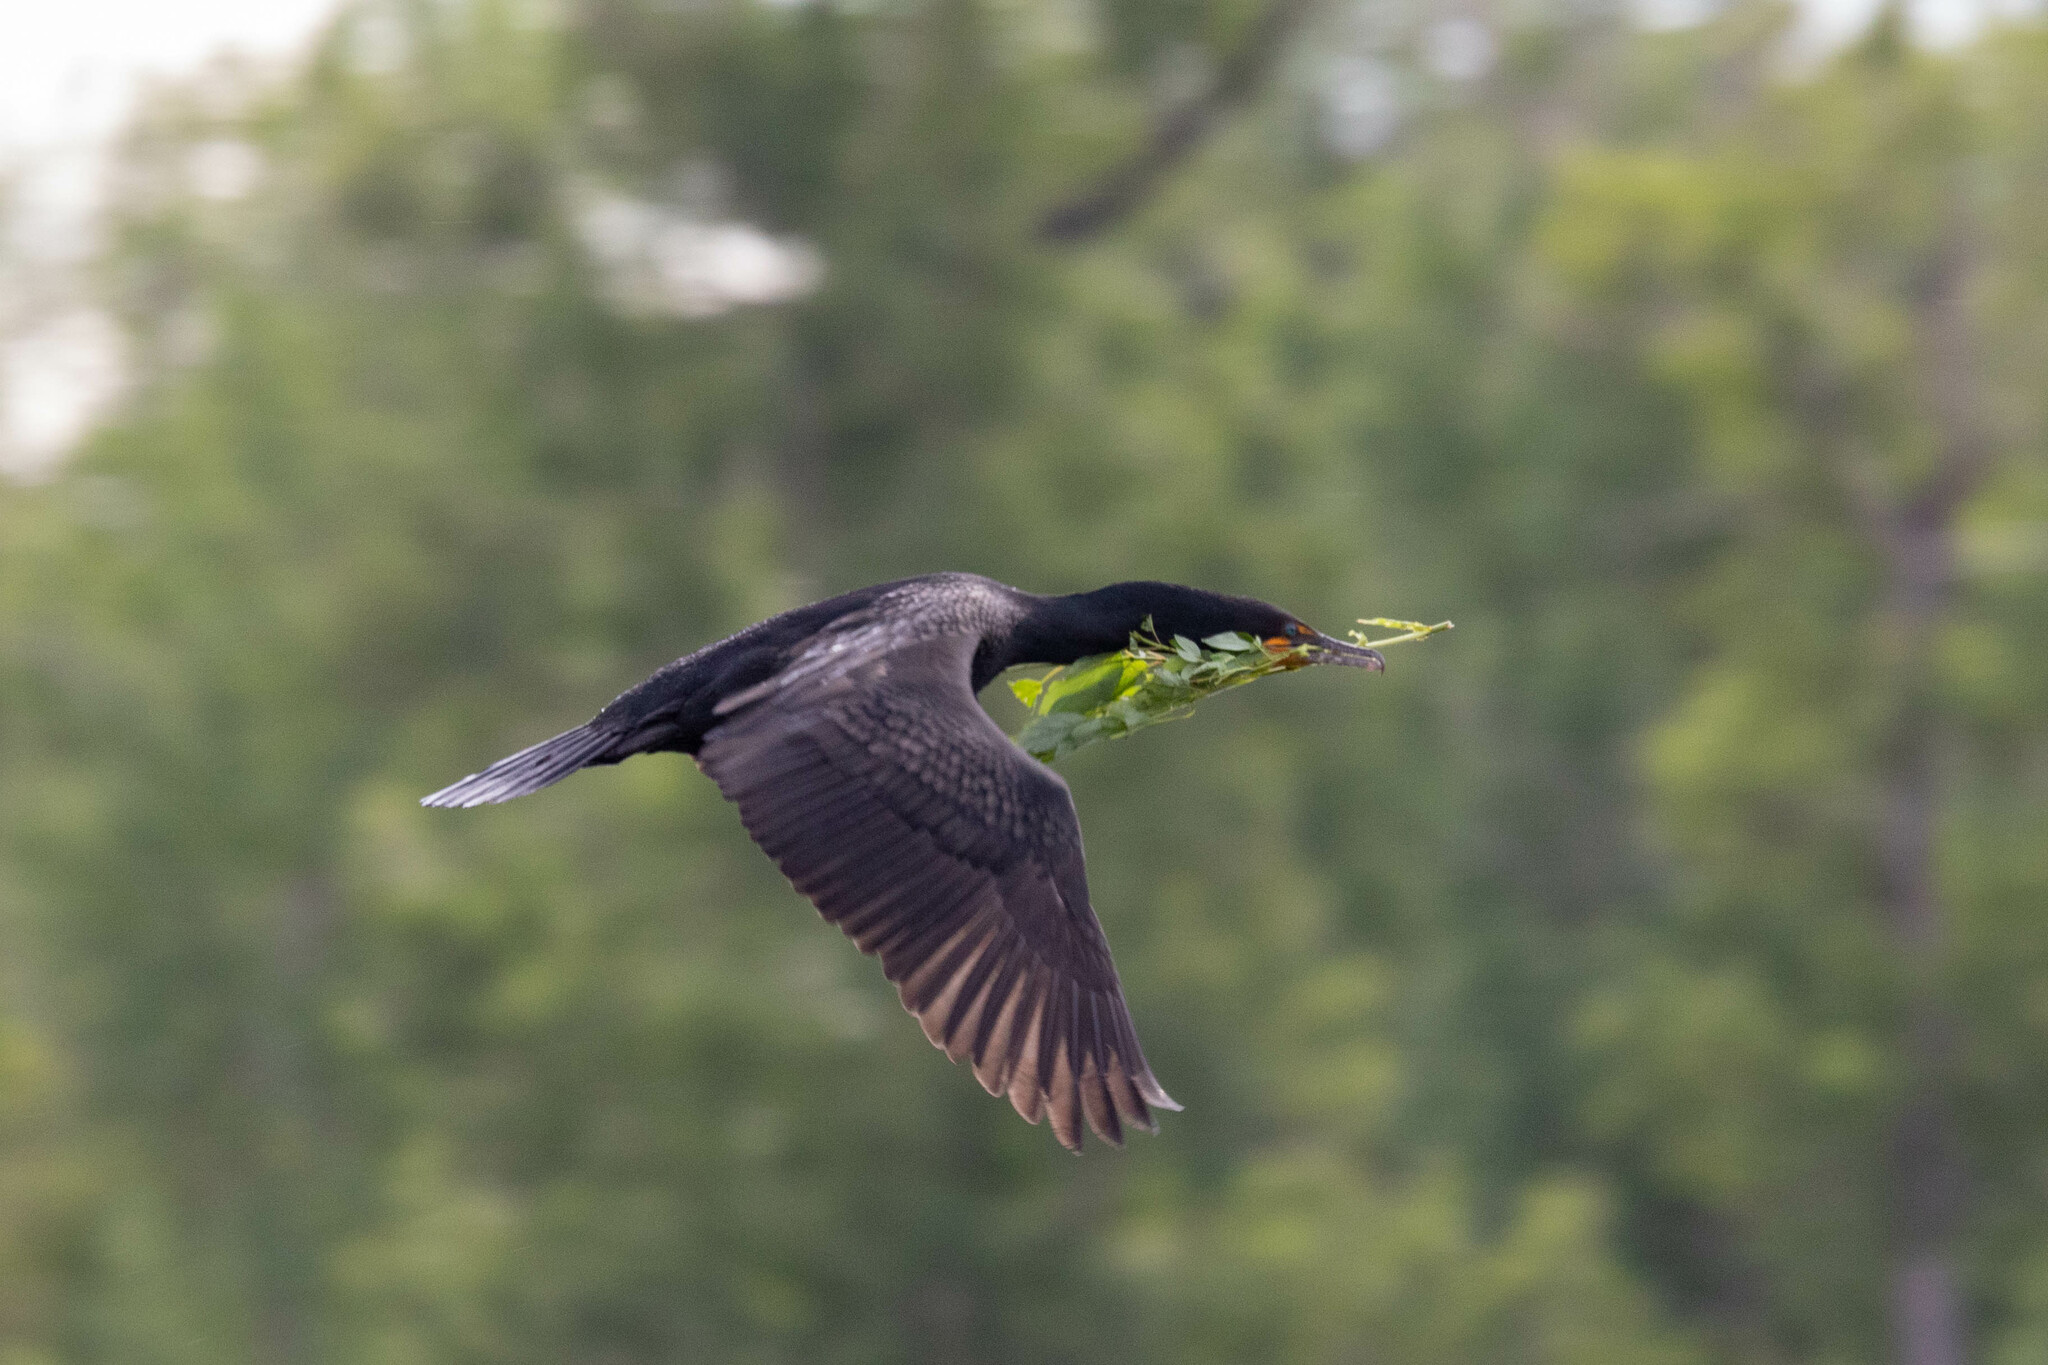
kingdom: Animalia
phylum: Chordata
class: Aves
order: Suliformes
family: Phalacrocoracidae
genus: Phalacrocorax
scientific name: Phalacrocorax auritus
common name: Double-crested cormorant
